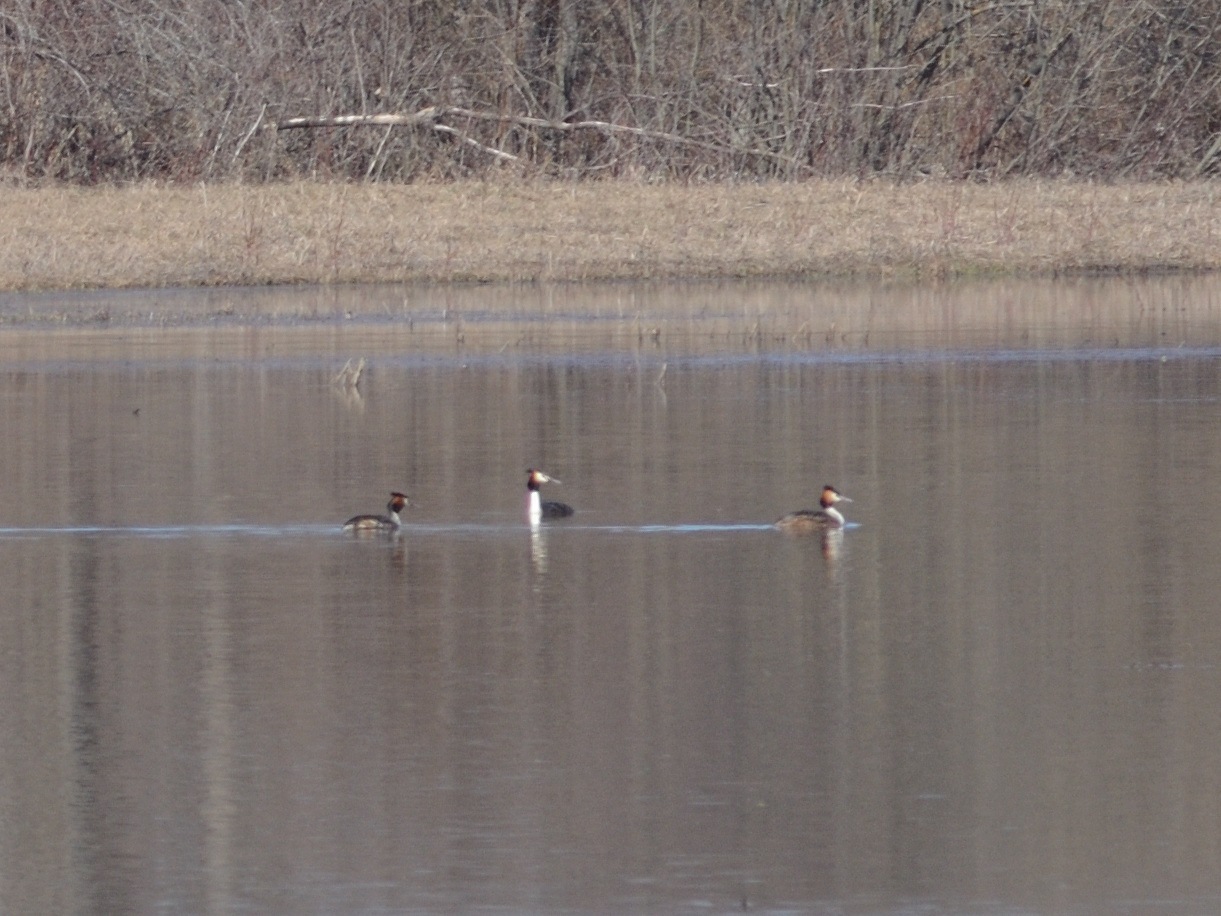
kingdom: Animalia
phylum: Chordata
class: Aves
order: Podicipediformes
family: Podicipedidae
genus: Podiceps
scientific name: Podiceps cristatus
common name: Great crested grebe
